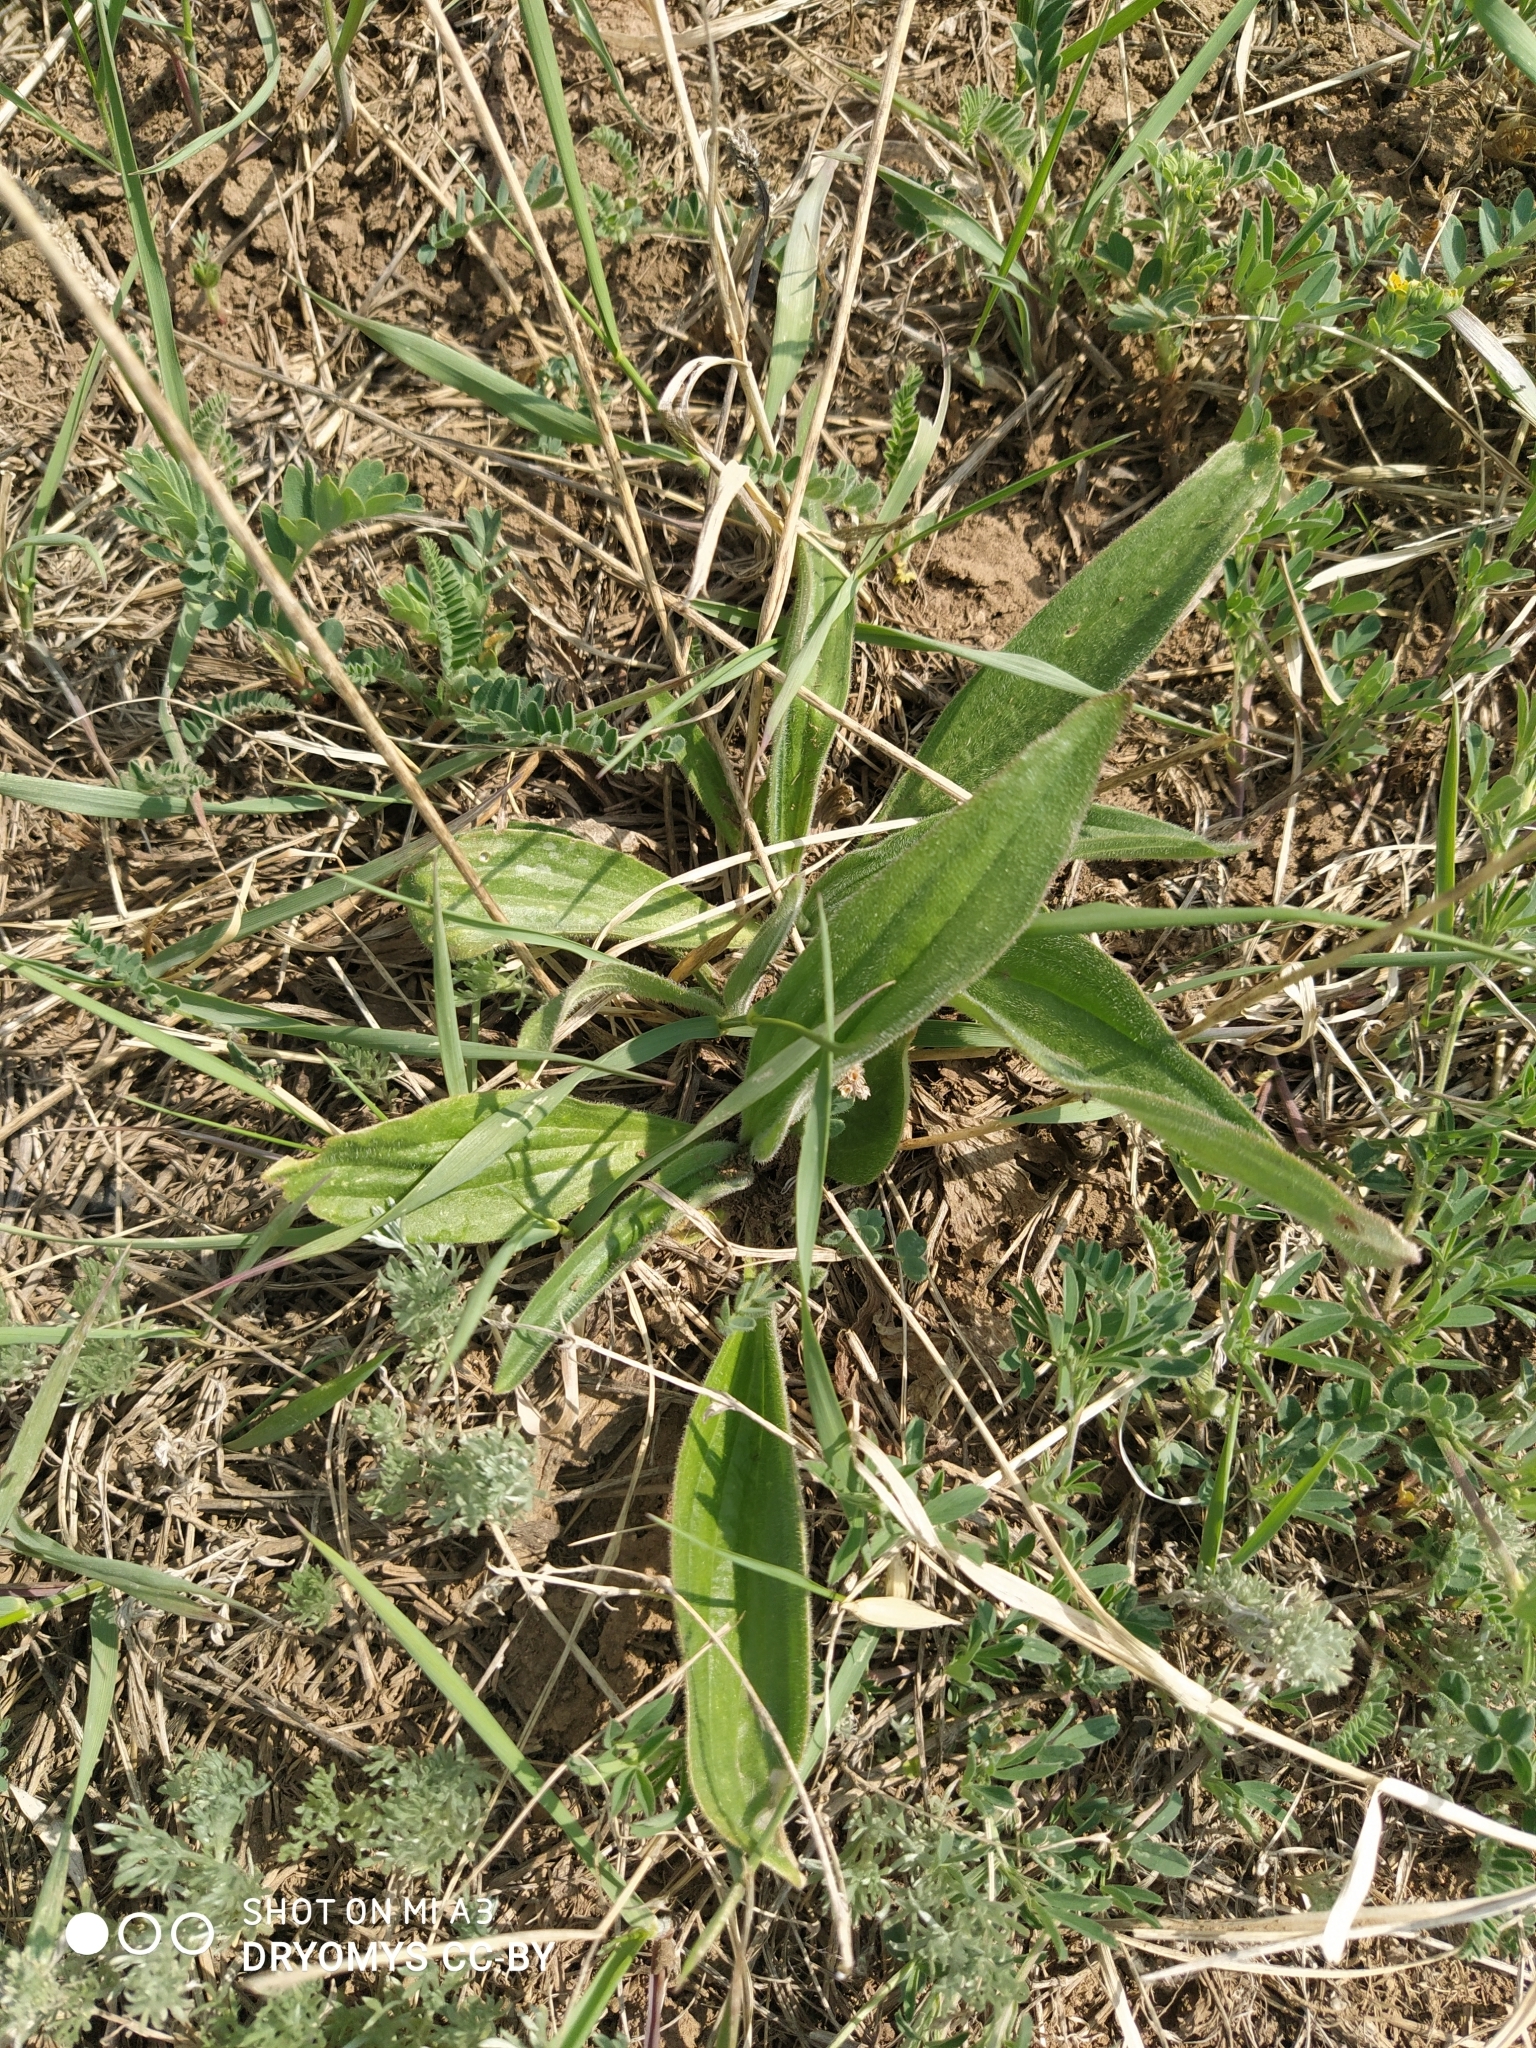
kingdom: Plantae
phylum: Tracheophyta
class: Magnoliopsida
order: Lamiales
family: Plantaginaceae
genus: Plantago
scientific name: Plantago lanceolata
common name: Ribwort plantain
